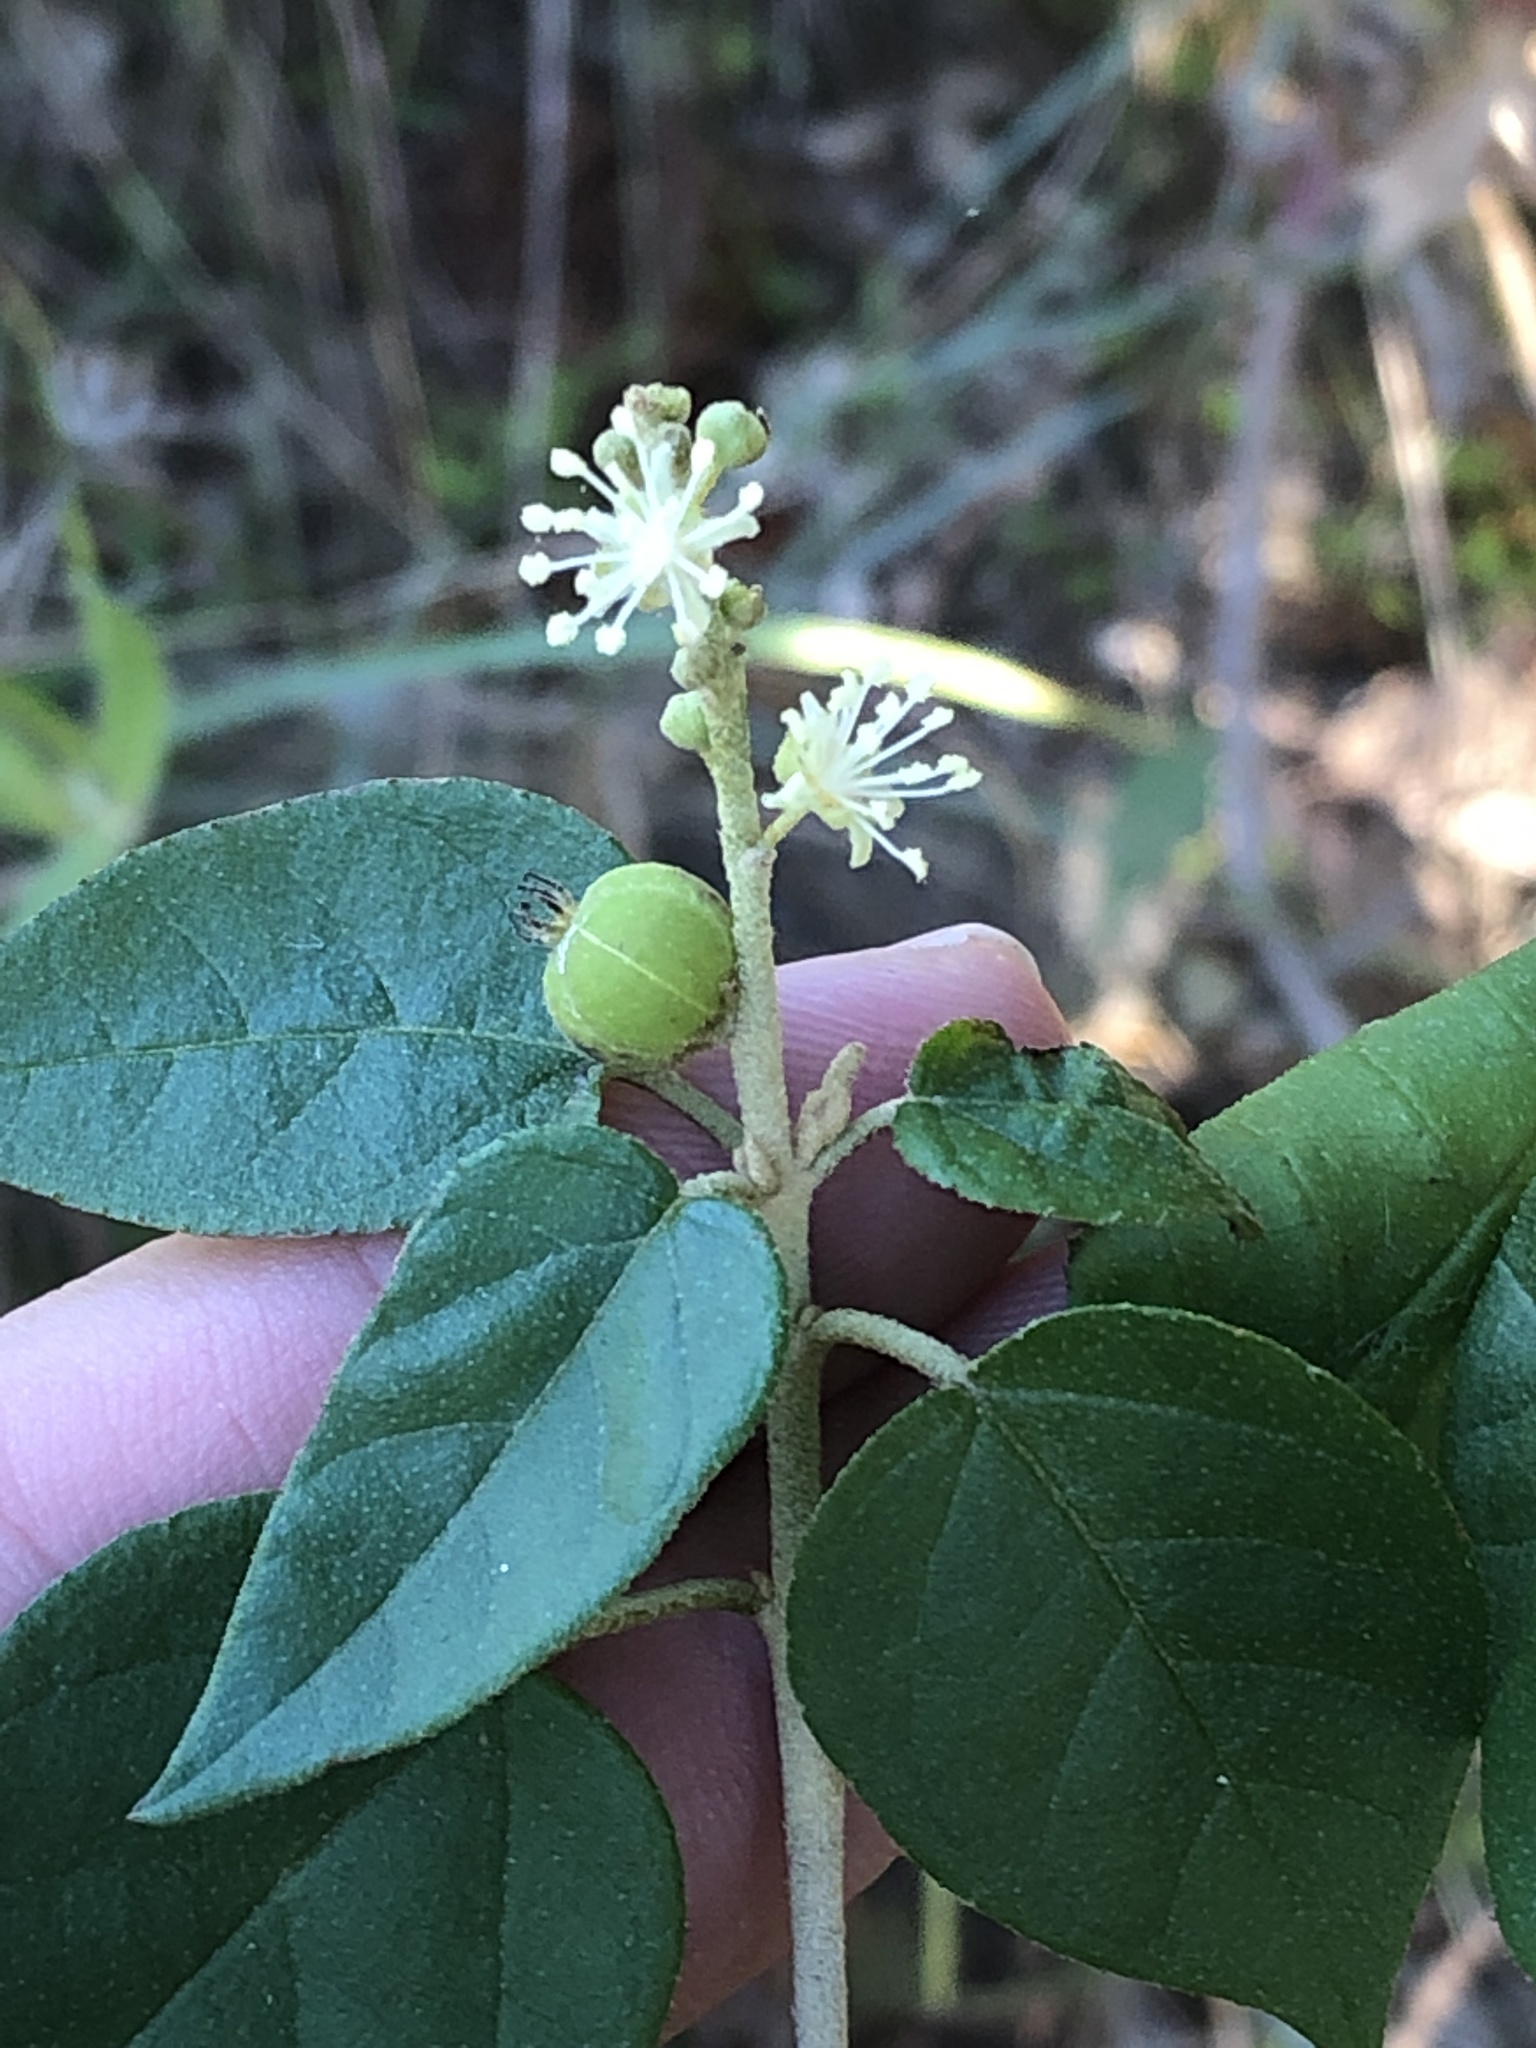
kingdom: Plantae
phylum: Tracheophyta
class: Magnoliopsida
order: Malpighiales
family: Euphorbiaceae
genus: Croton
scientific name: Croton fruticulosus
